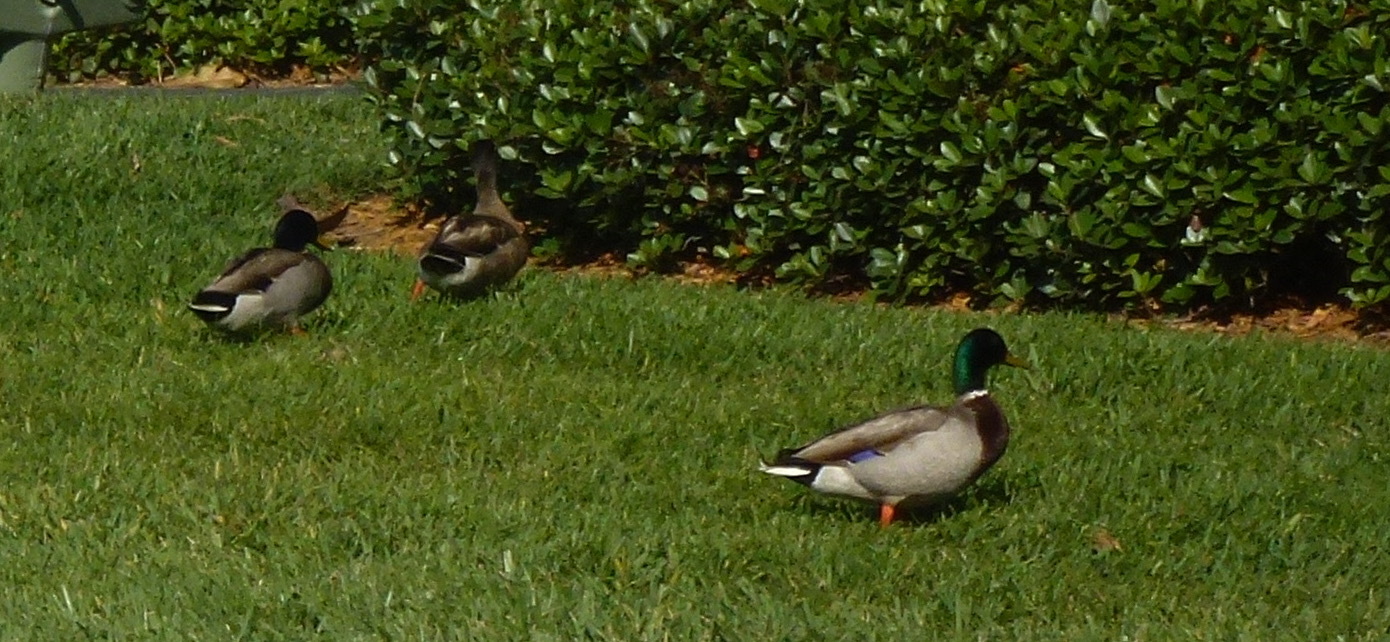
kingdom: Animalia
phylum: Chordata
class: Aves
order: Anseriformes
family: Anatidae
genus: Anas
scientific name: Anas platyrhynchos
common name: Mallard
